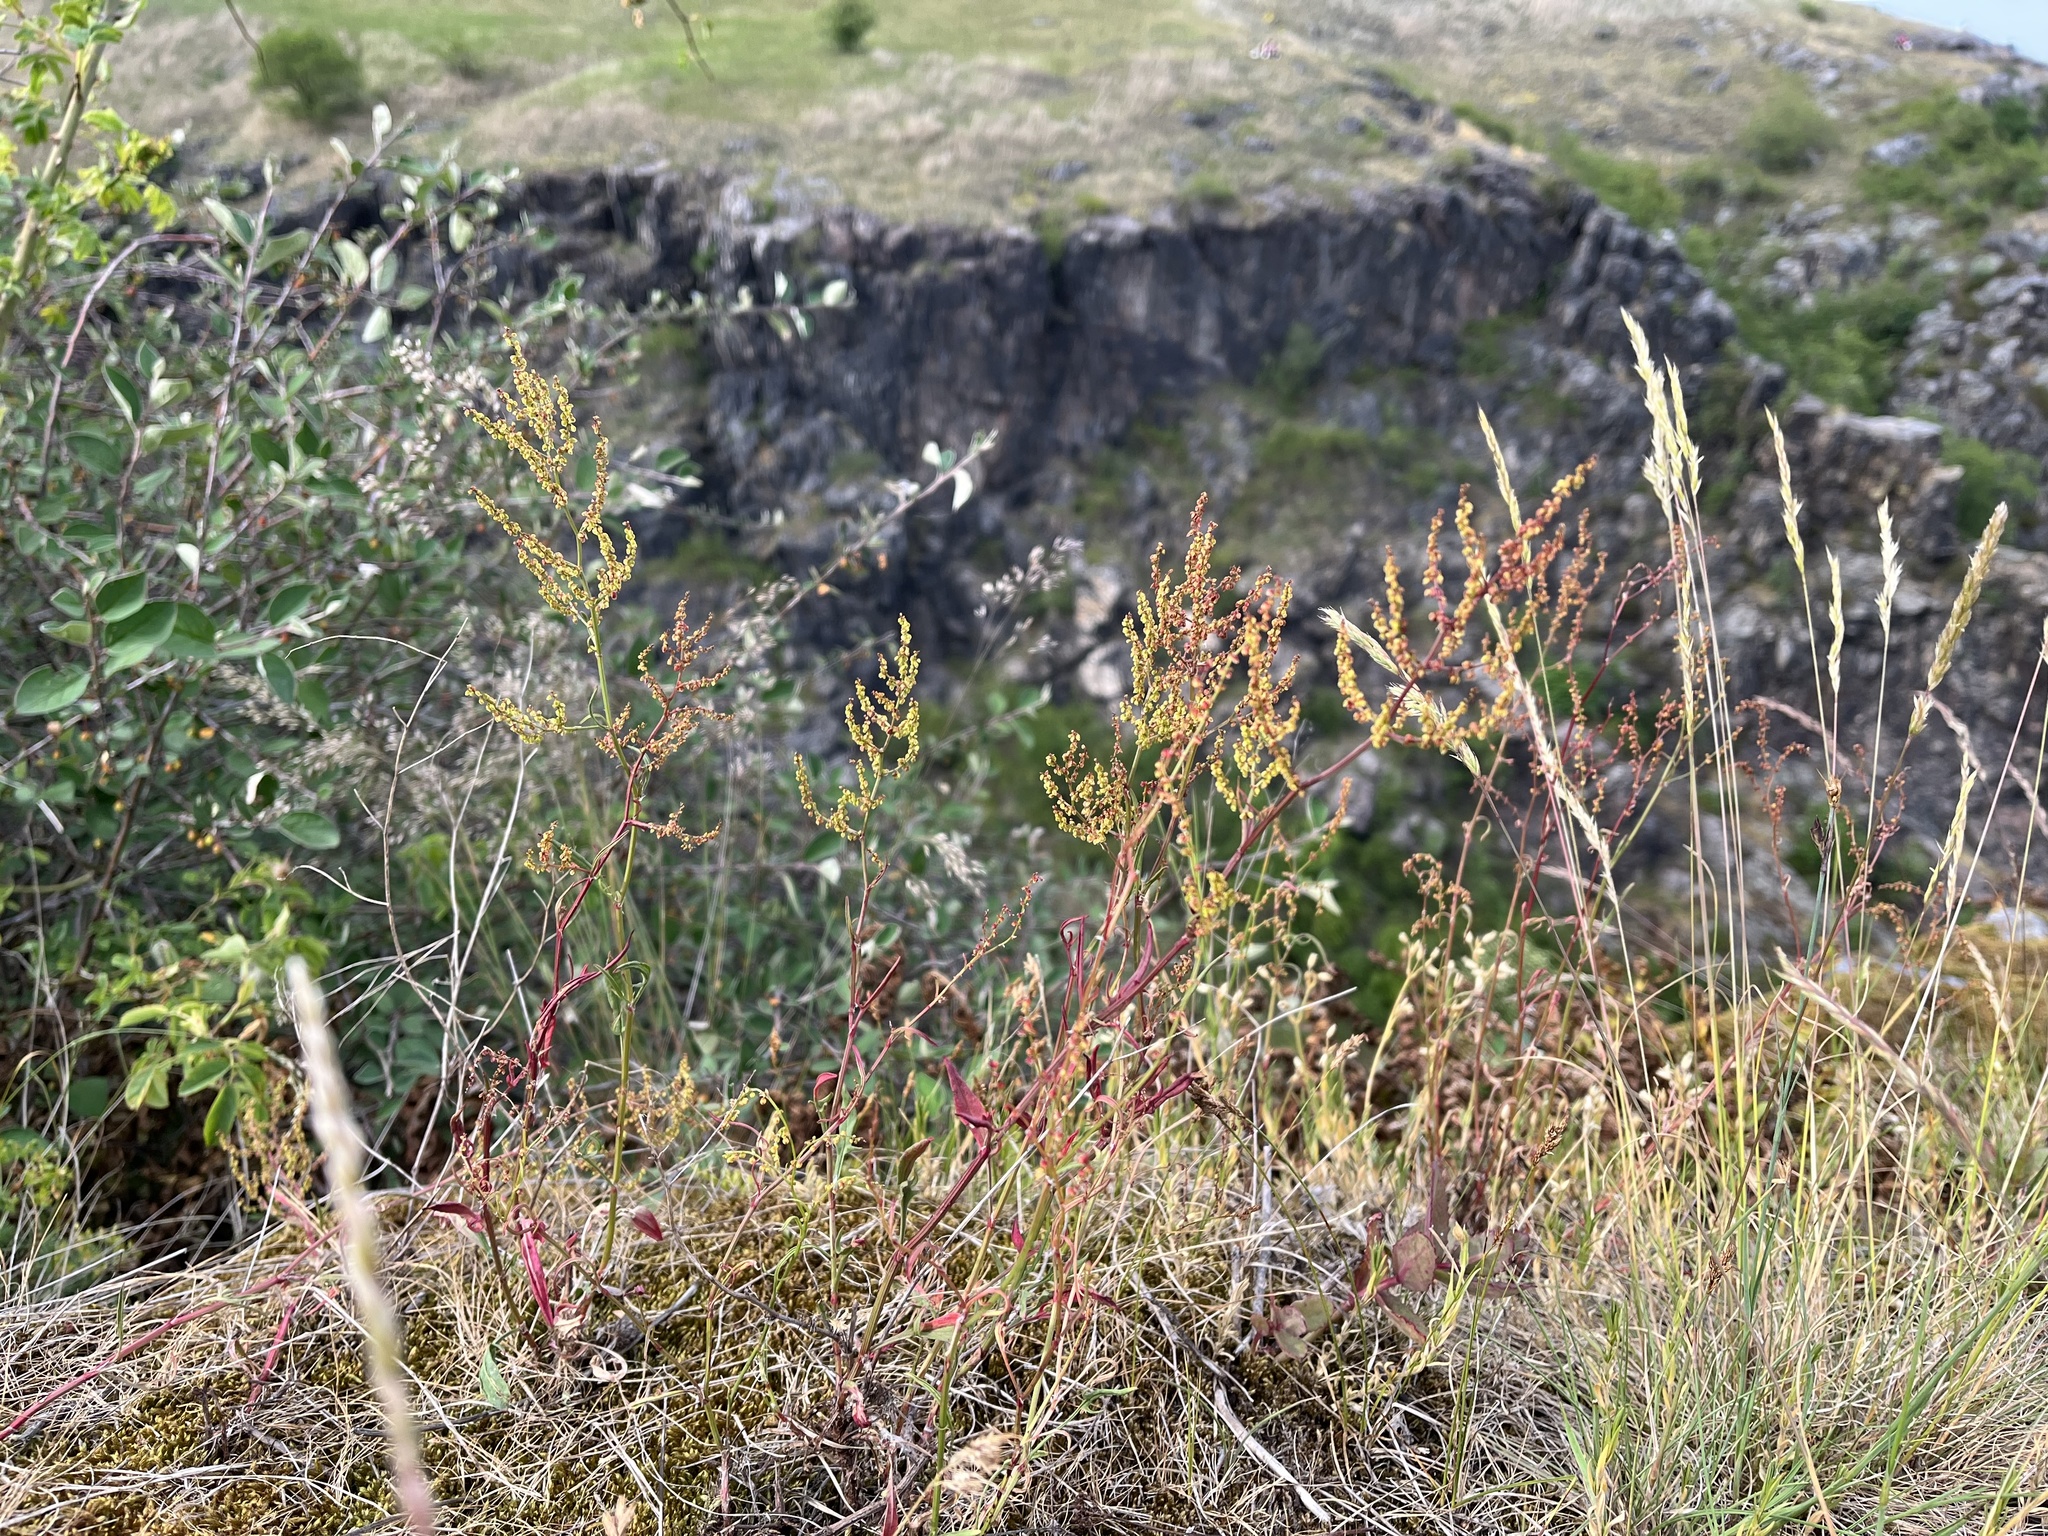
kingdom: Plantae
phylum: Tracheophyta
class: Magnoliopsida
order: Caryophyllales
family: Polygonaceae
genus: Rumex
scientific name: Rumex acetosella
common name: Common sheep sorrel
